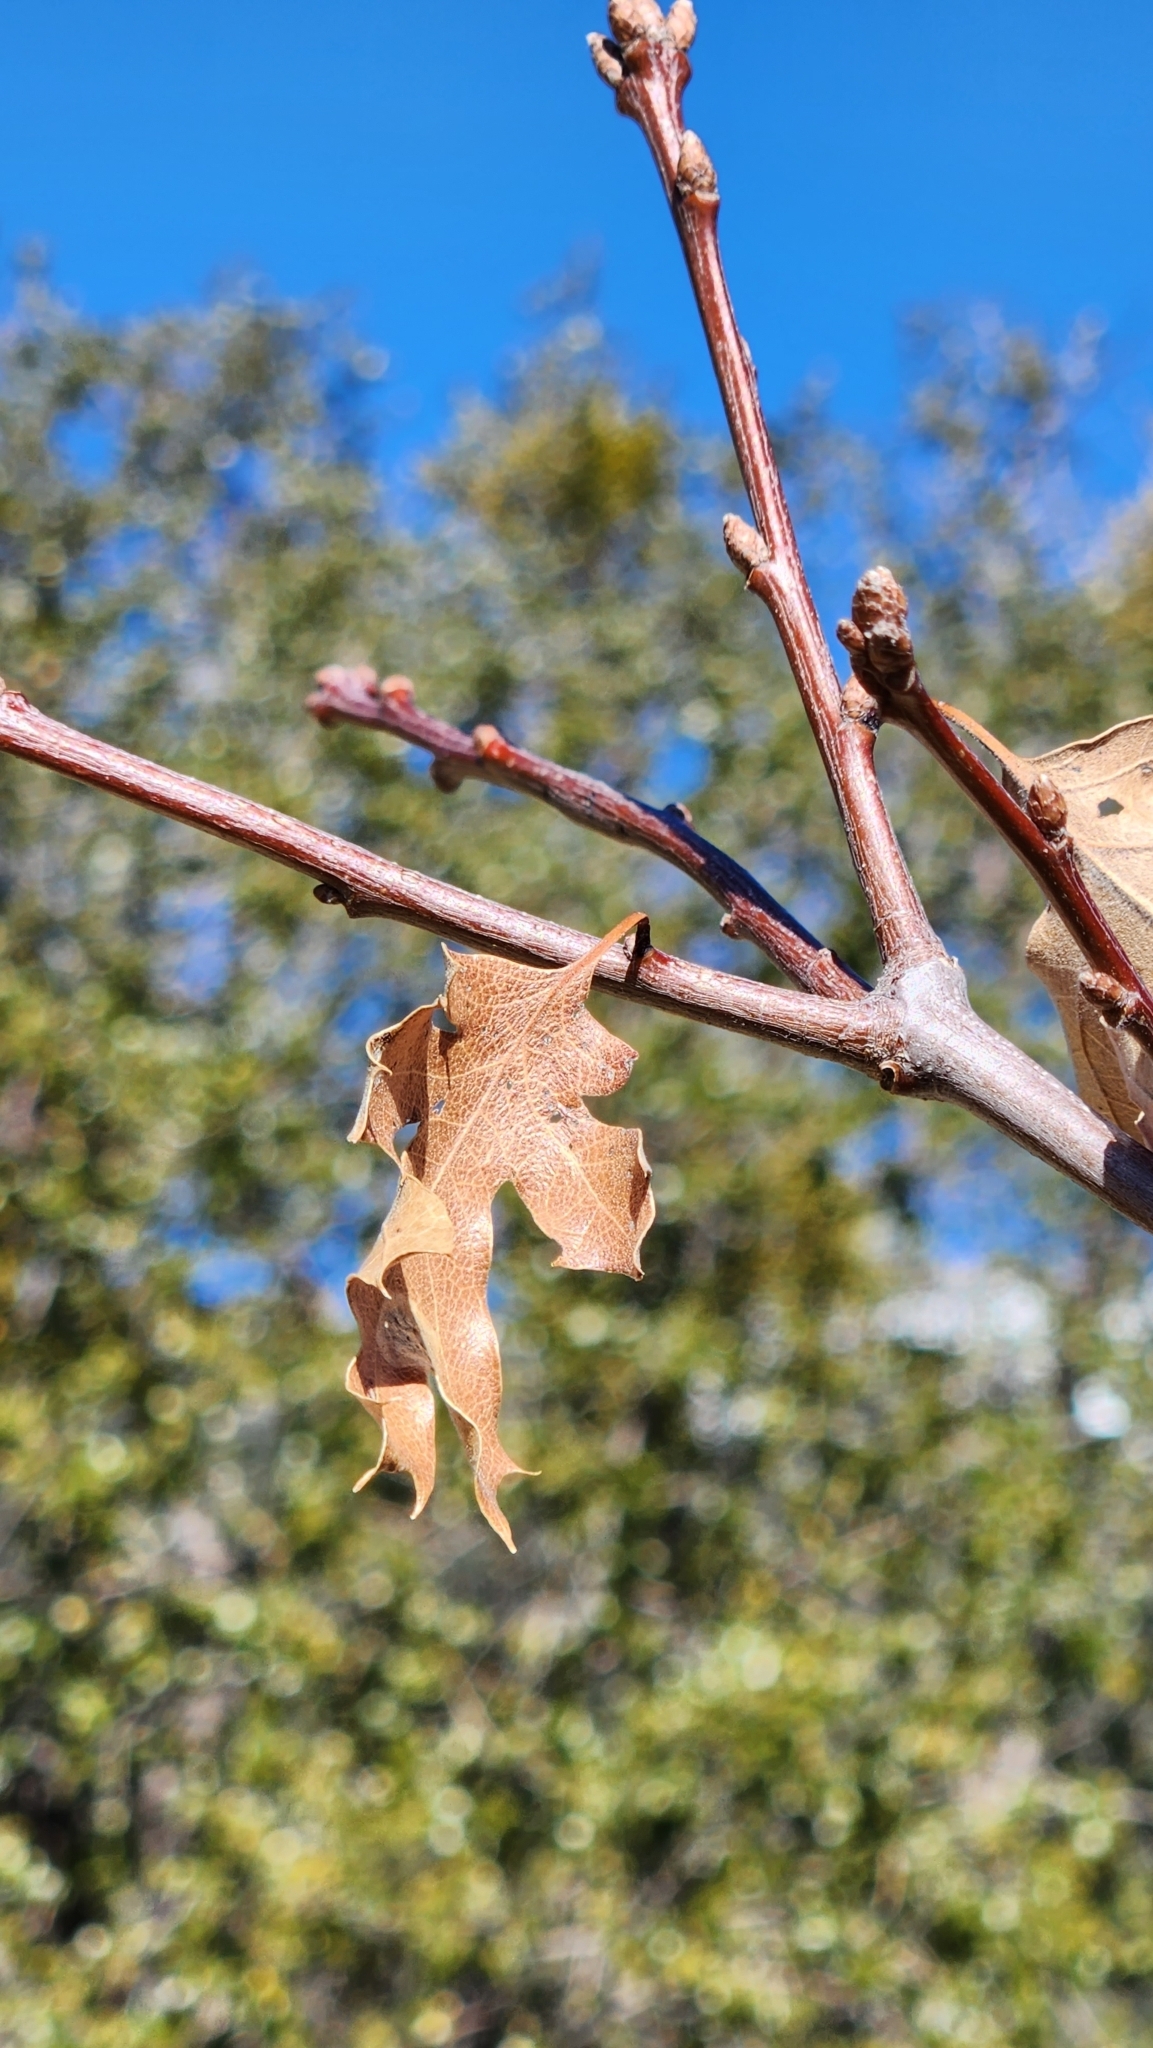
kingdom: Plantae
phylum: Tracheophyta
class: Magnoliopsida
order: Fagales
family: Fagaceae
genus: Quercus
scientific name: Quercus kelloggii
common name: California black oak
